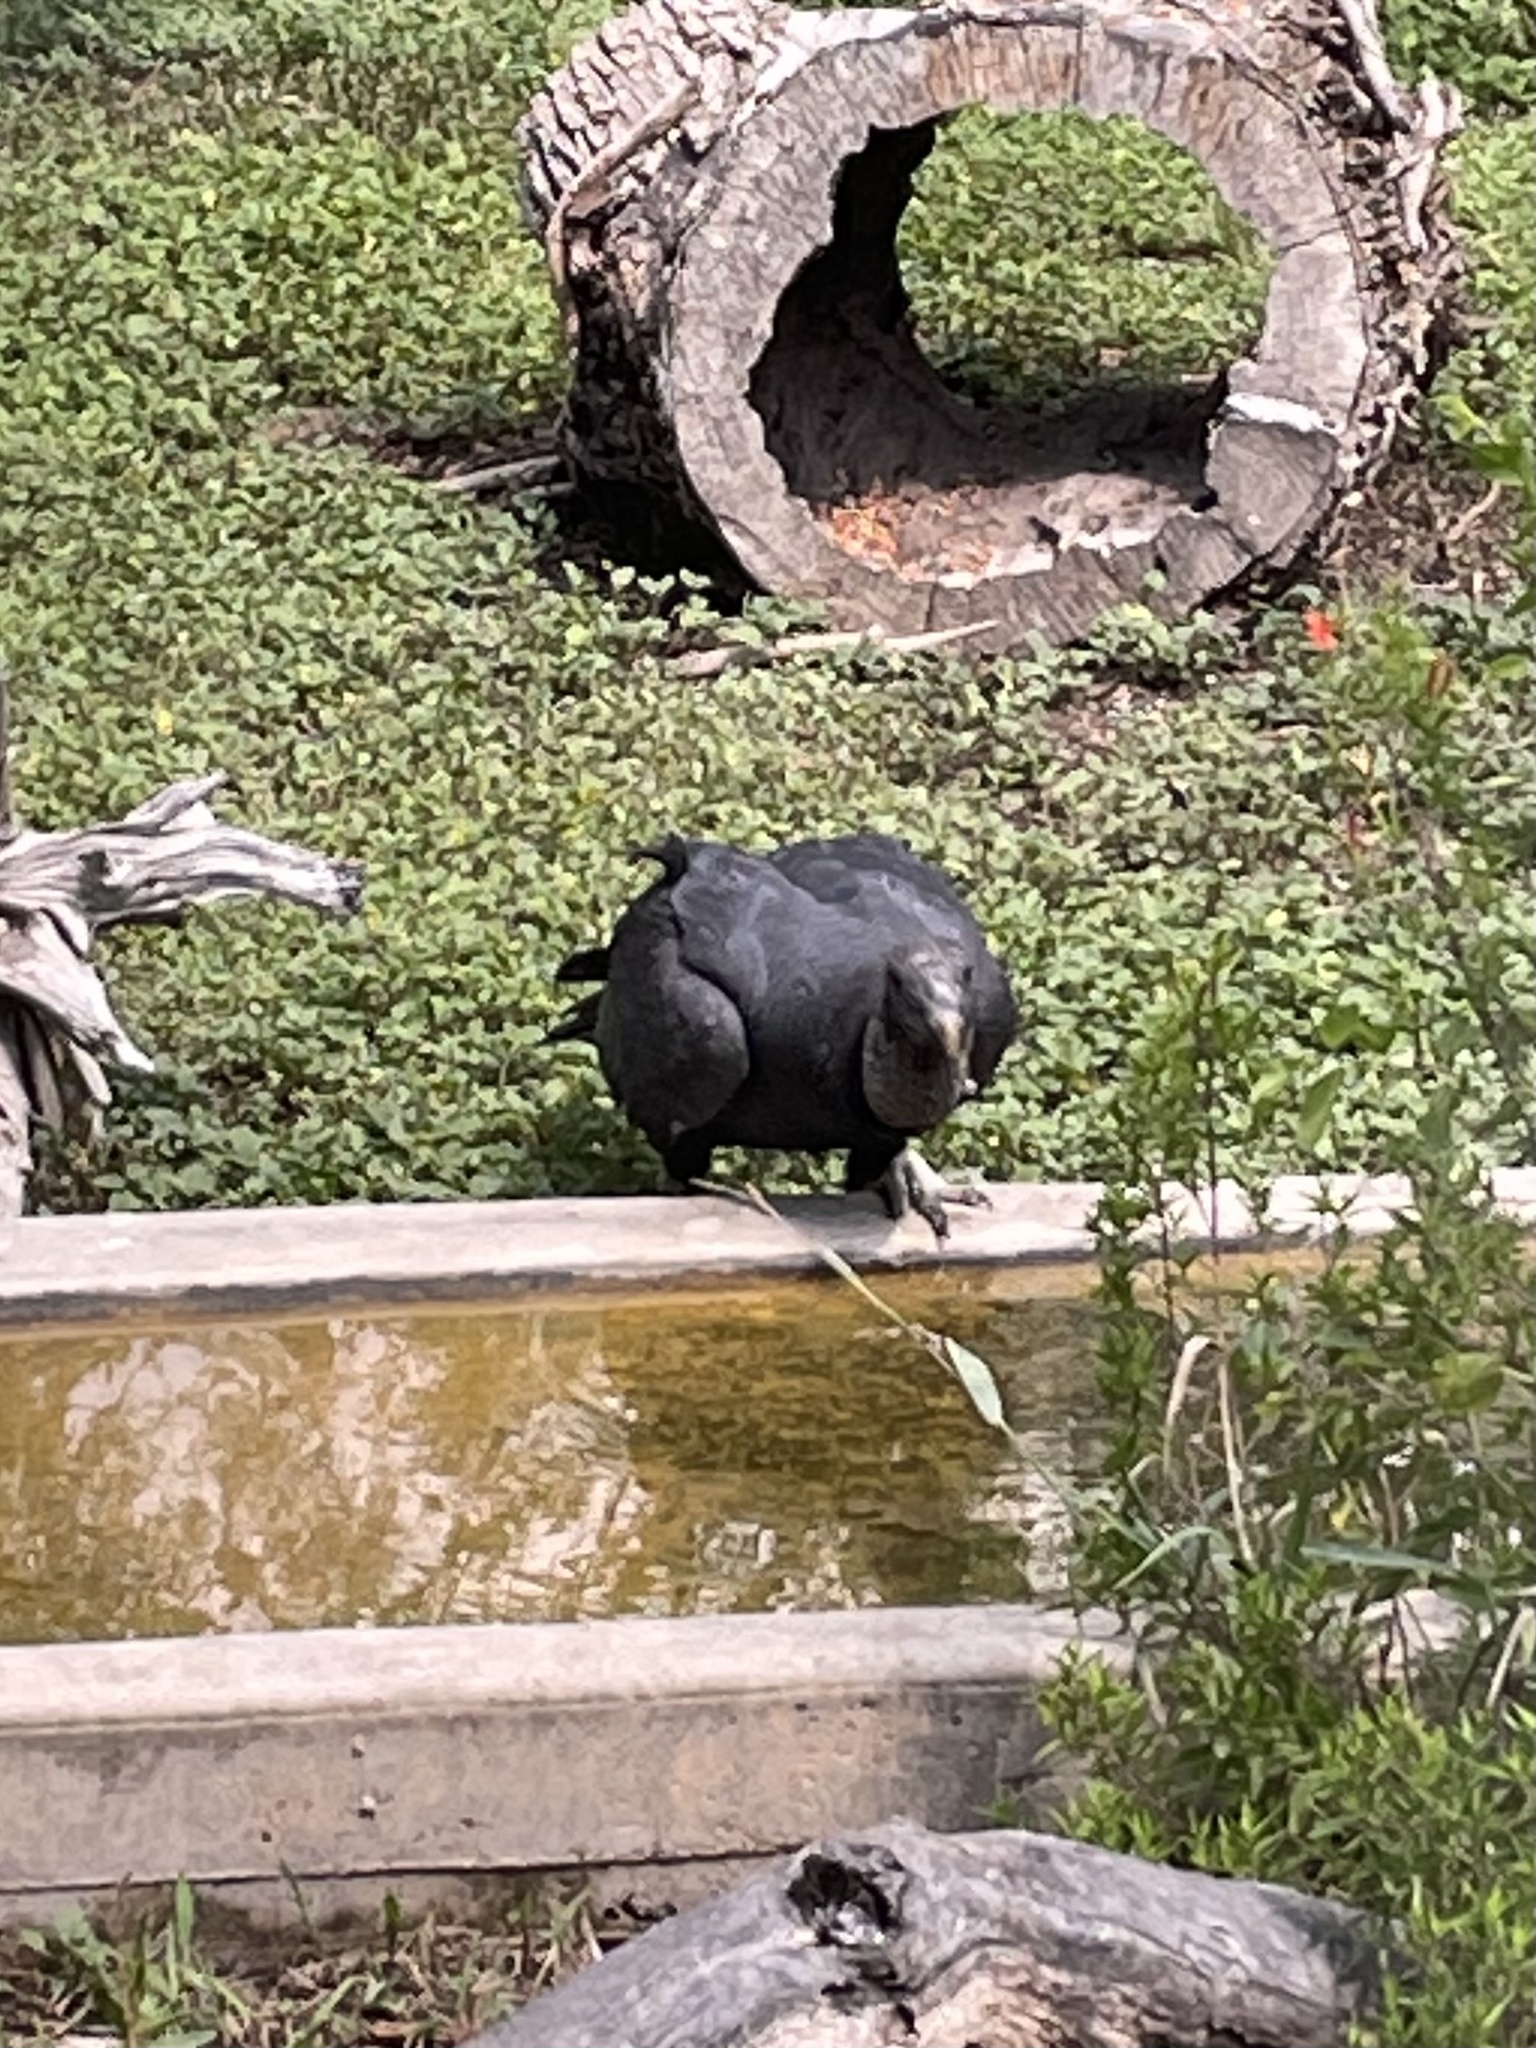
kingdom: Animalia
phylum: Chordata
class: Aves
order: Accipitriformes
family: Cathartidae
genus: Coragyps
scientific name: Coragyps atratus
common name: Black vulture
